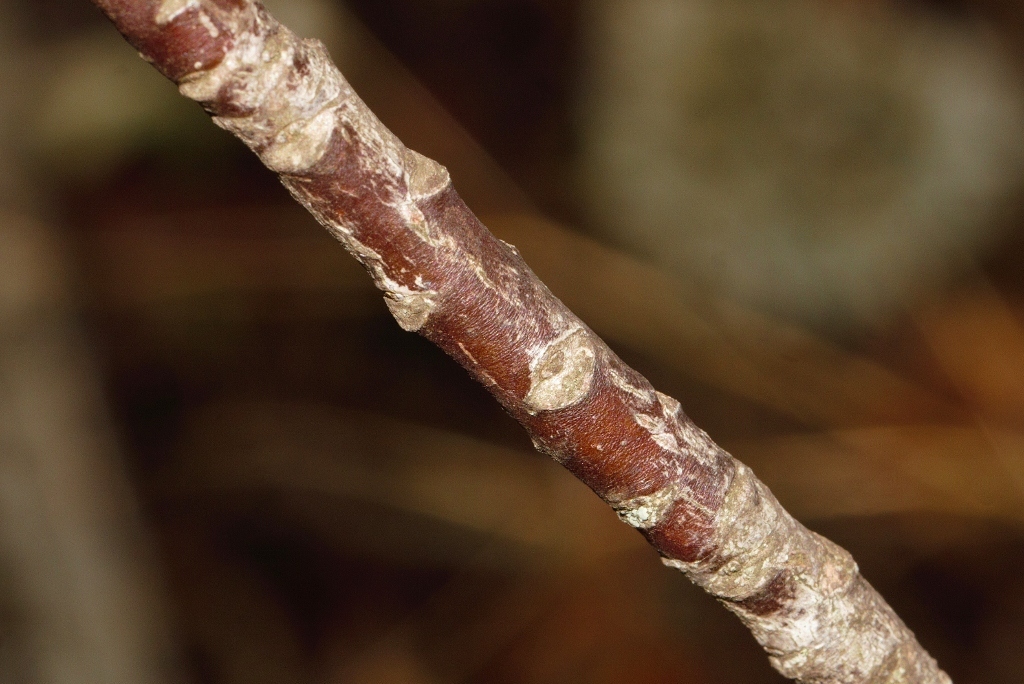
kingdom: Plantae
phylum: Tracheophyta
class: Magnoliopsida
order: Ericales
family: Primulaceae
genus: Myrsine
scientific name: Myrsine melanophloeos
